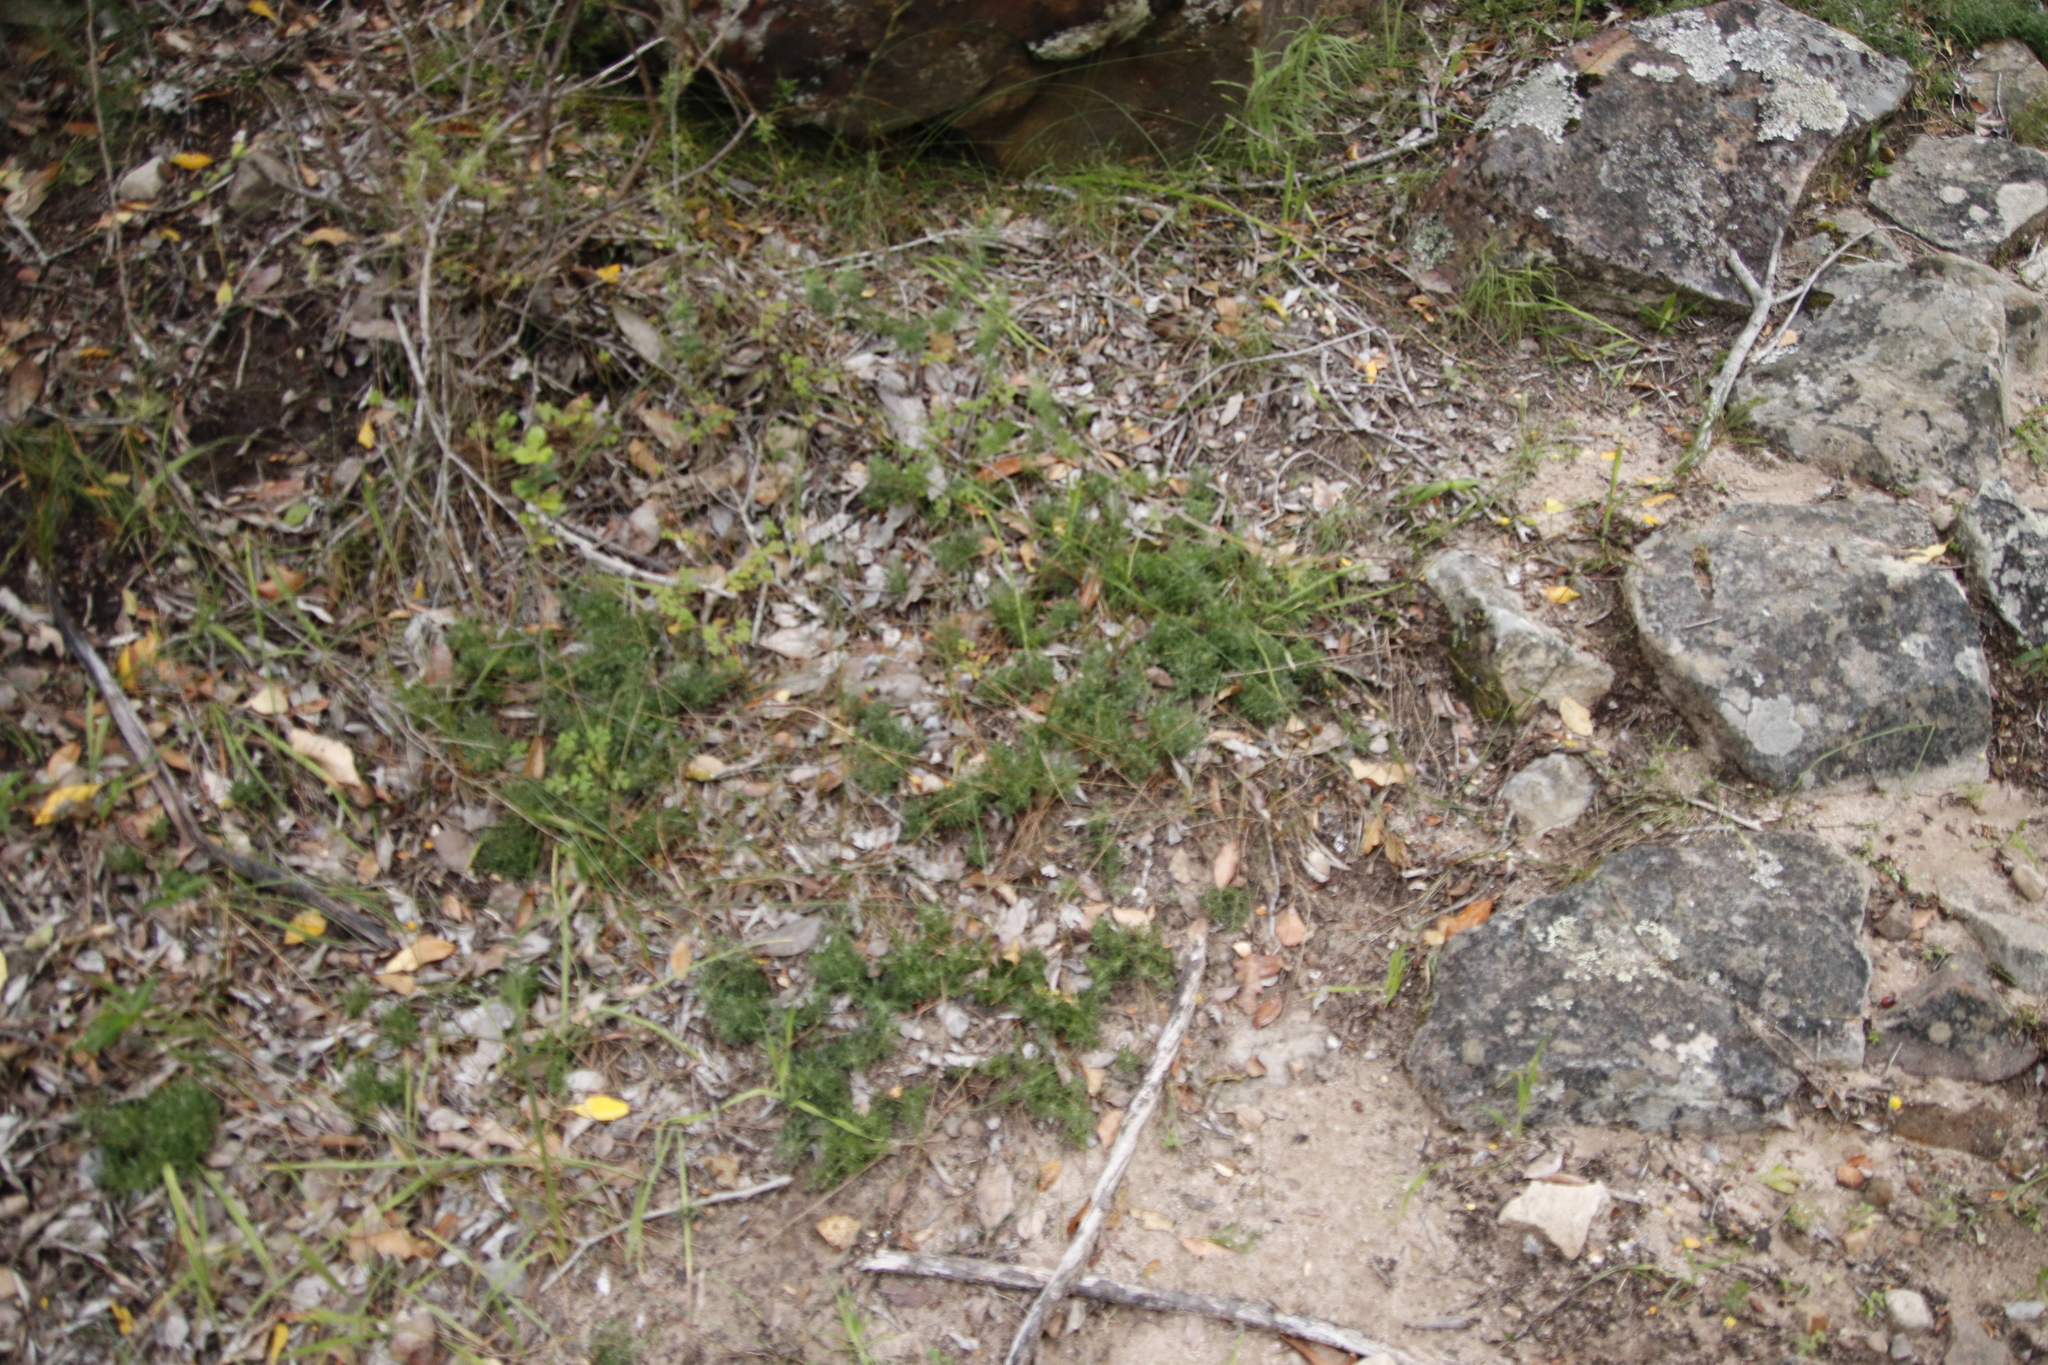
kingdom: Plantae
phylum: Tracheophyta
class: Magnoliopsida
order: Fabales
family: Fabaceae
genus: Psoralea
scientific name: Psoralea
